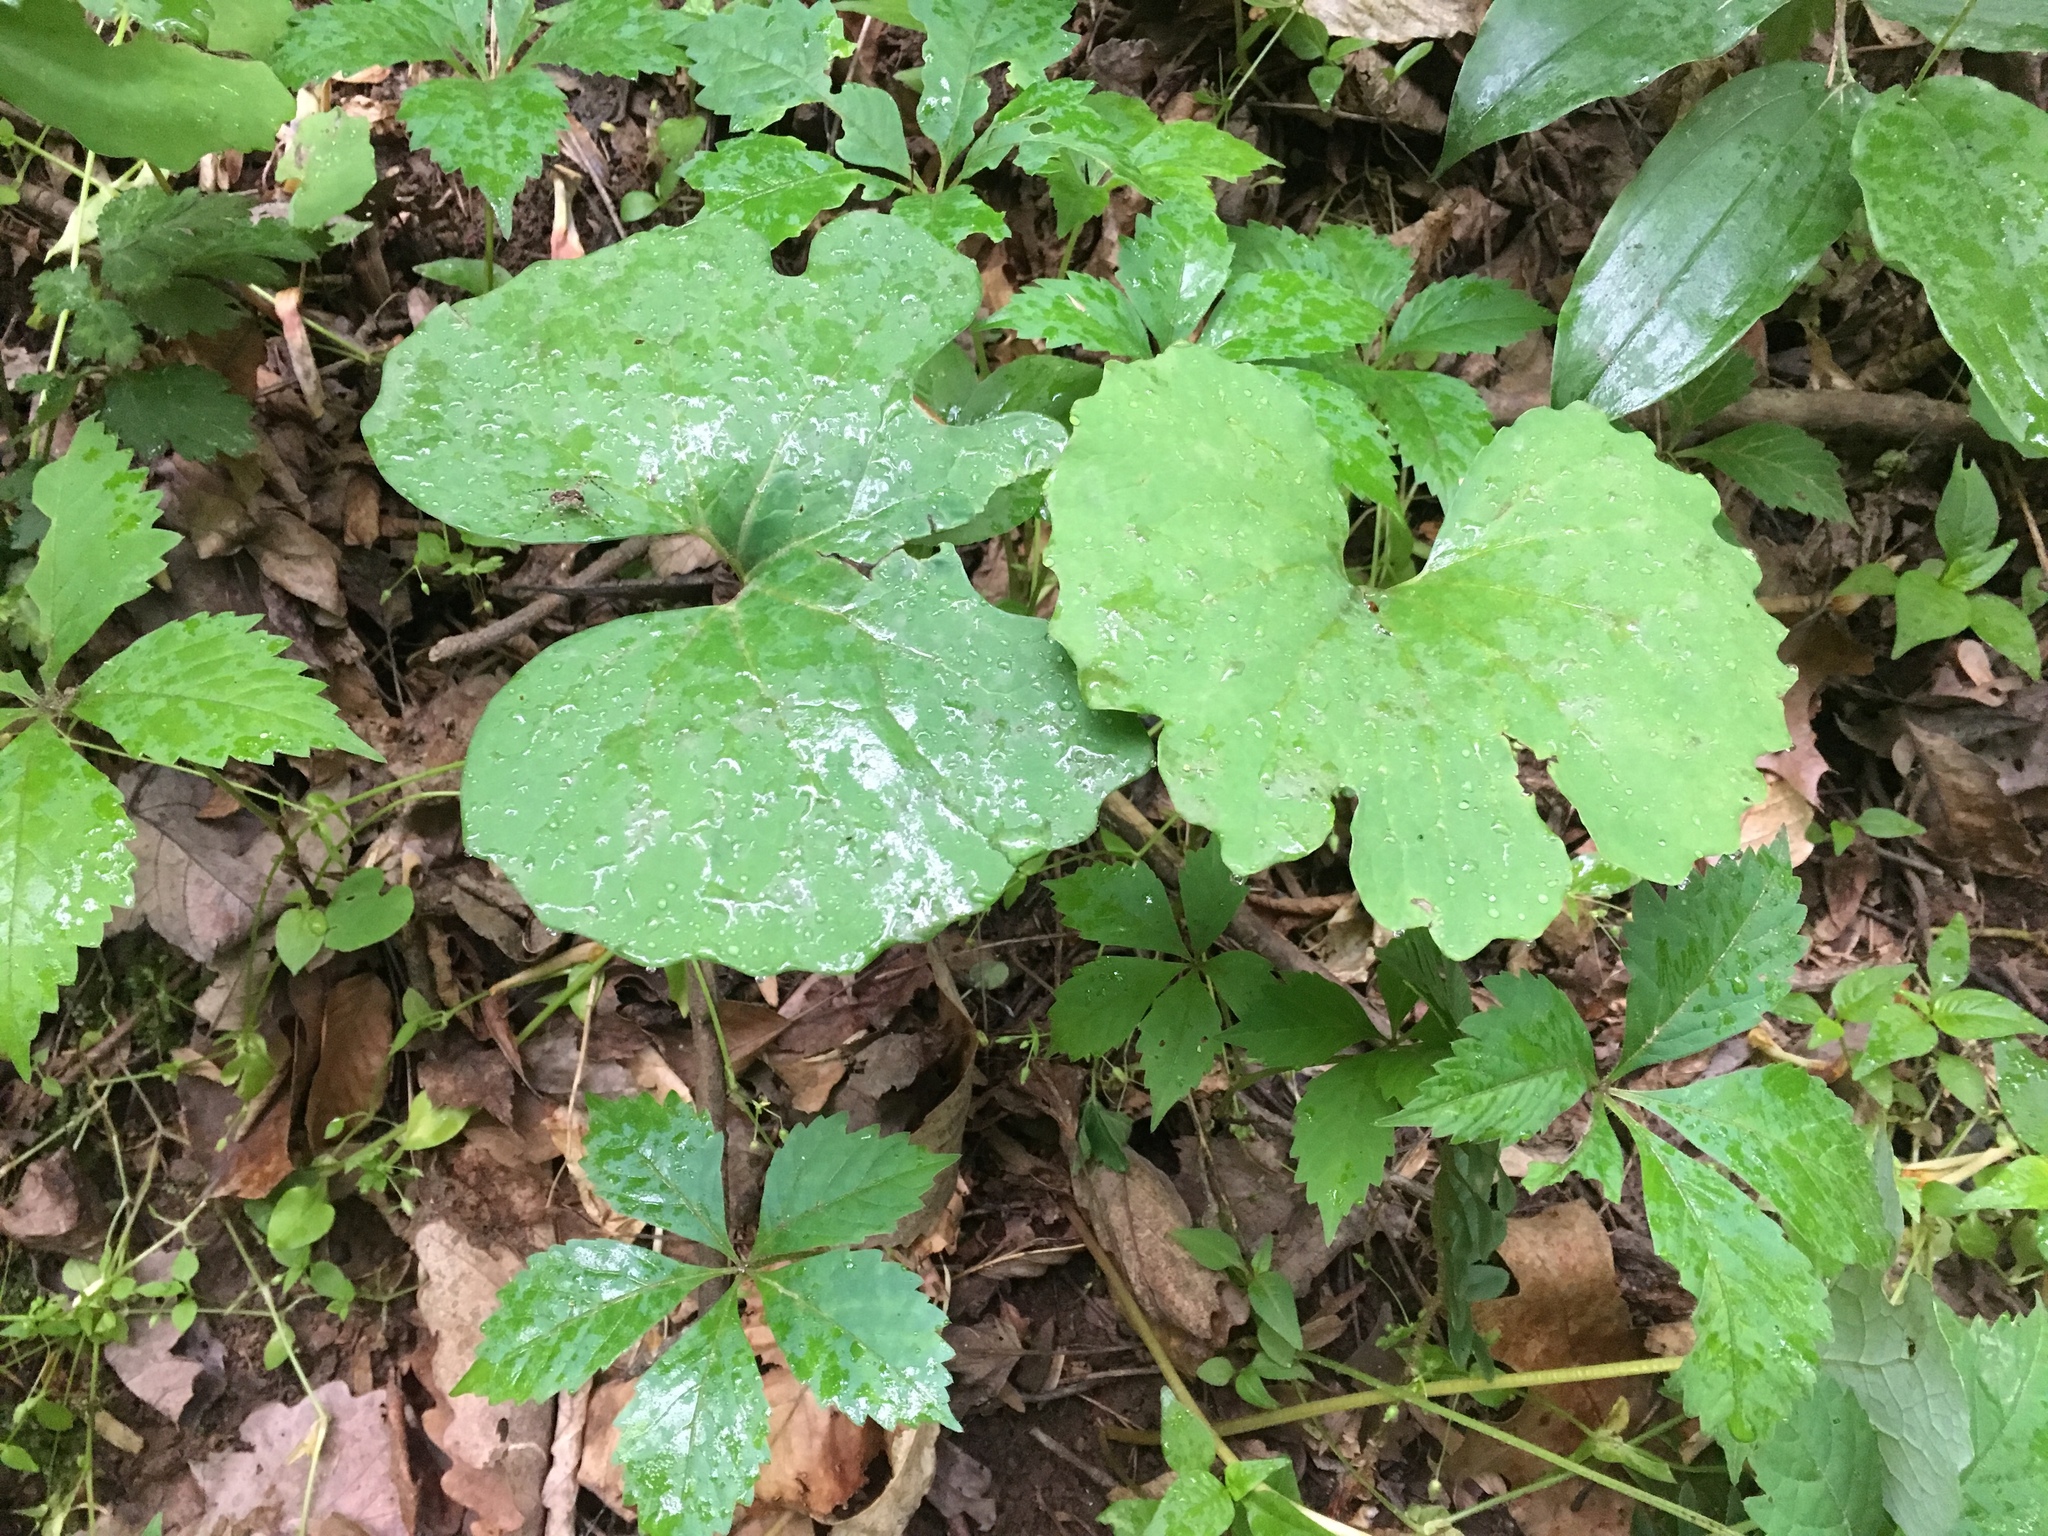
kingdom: Plantae
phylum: Tracheophyta
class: Magnoliopsida
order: Ranunculales
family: Papaveraceae
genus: Sanguinaria
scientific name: Sanguinaria canadensis
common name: Bloodroot
